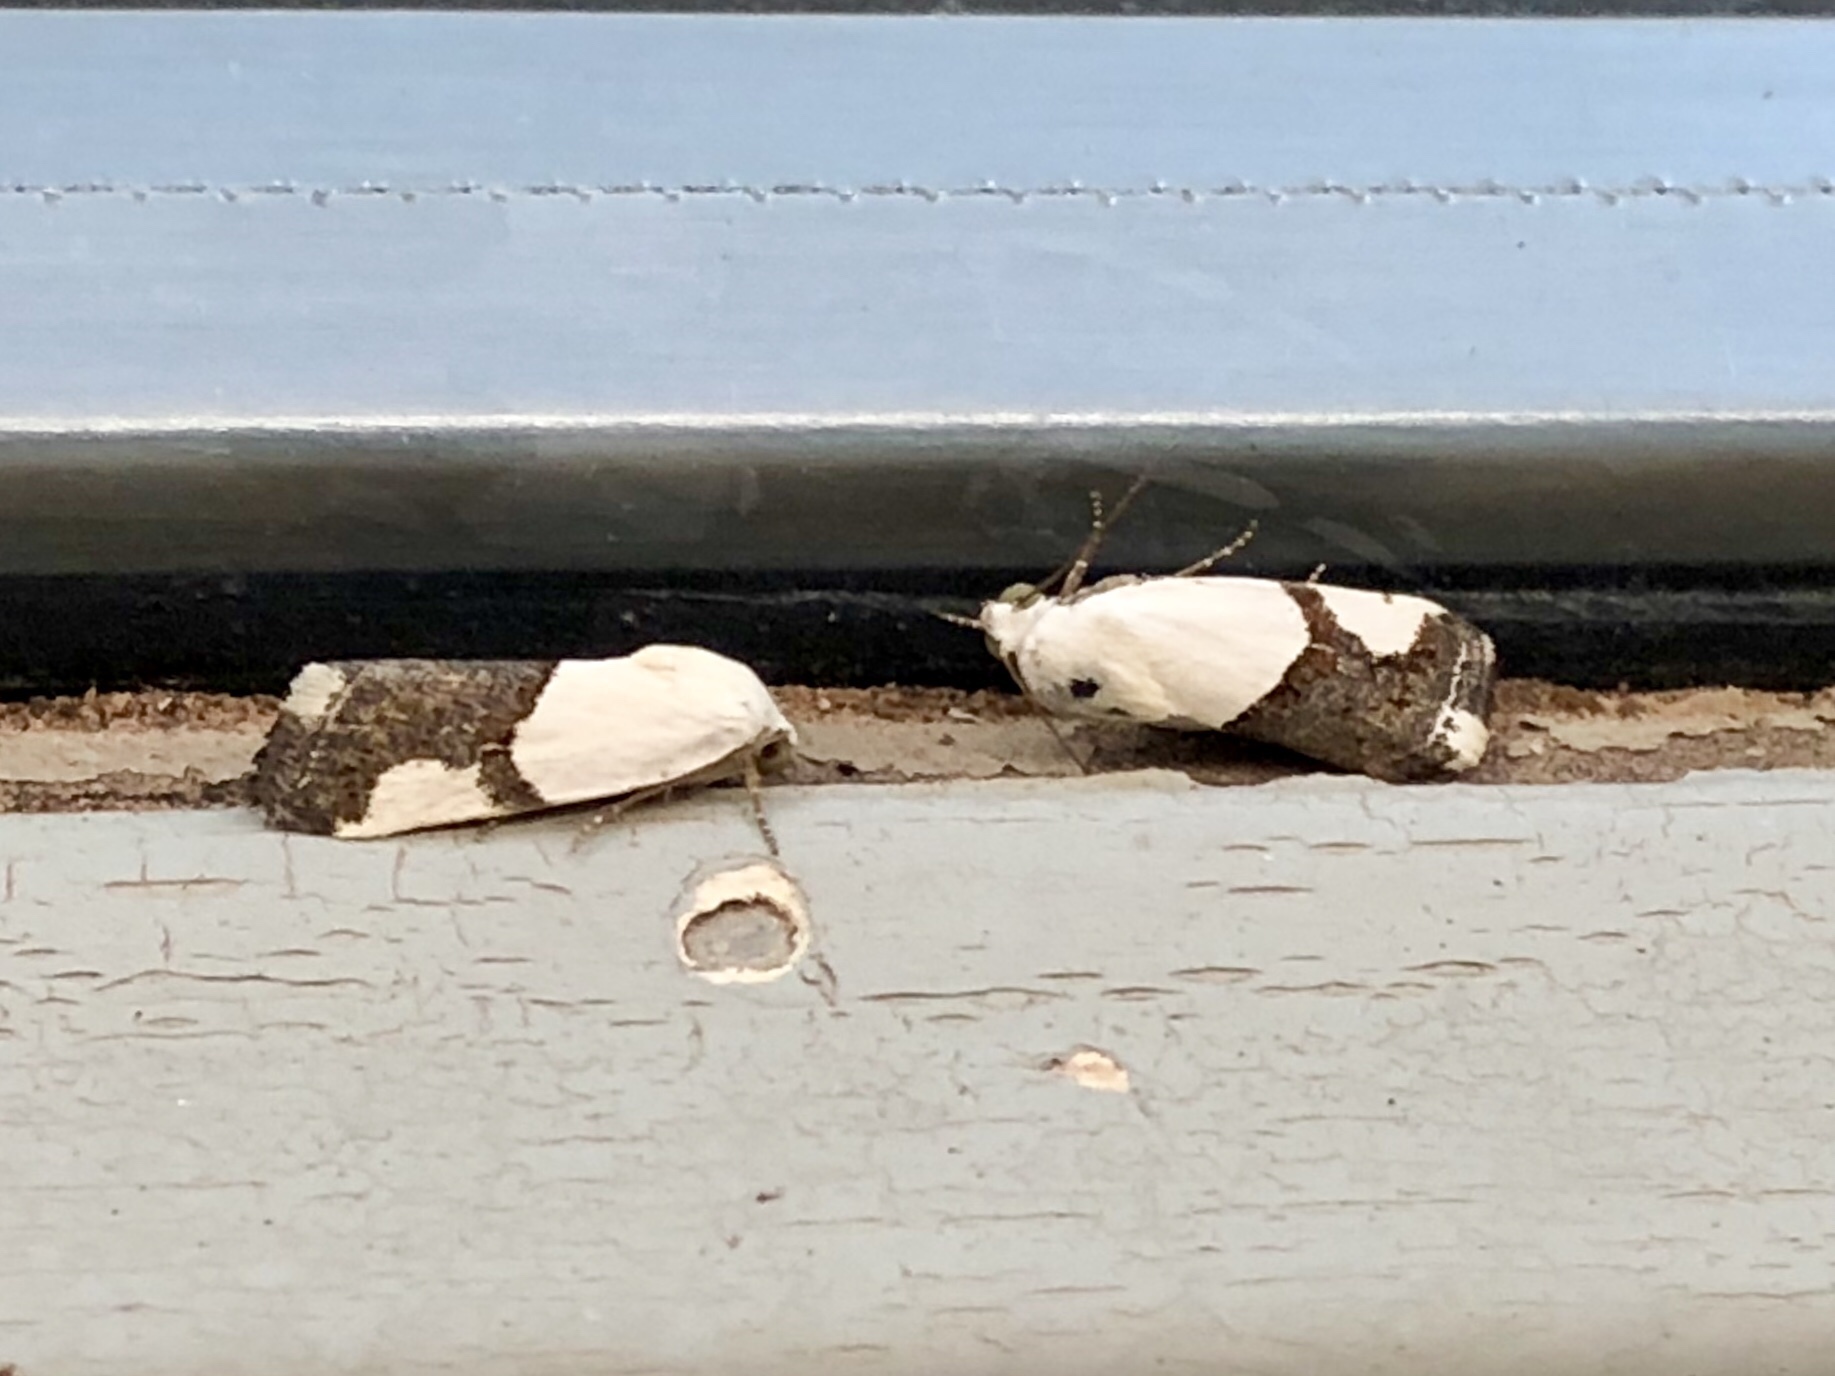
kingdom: Animalia
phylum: Arthropoda
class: Insecta
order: Lepidoptera
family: Noctuidae
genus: Acontia
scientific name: Acontia cuta
